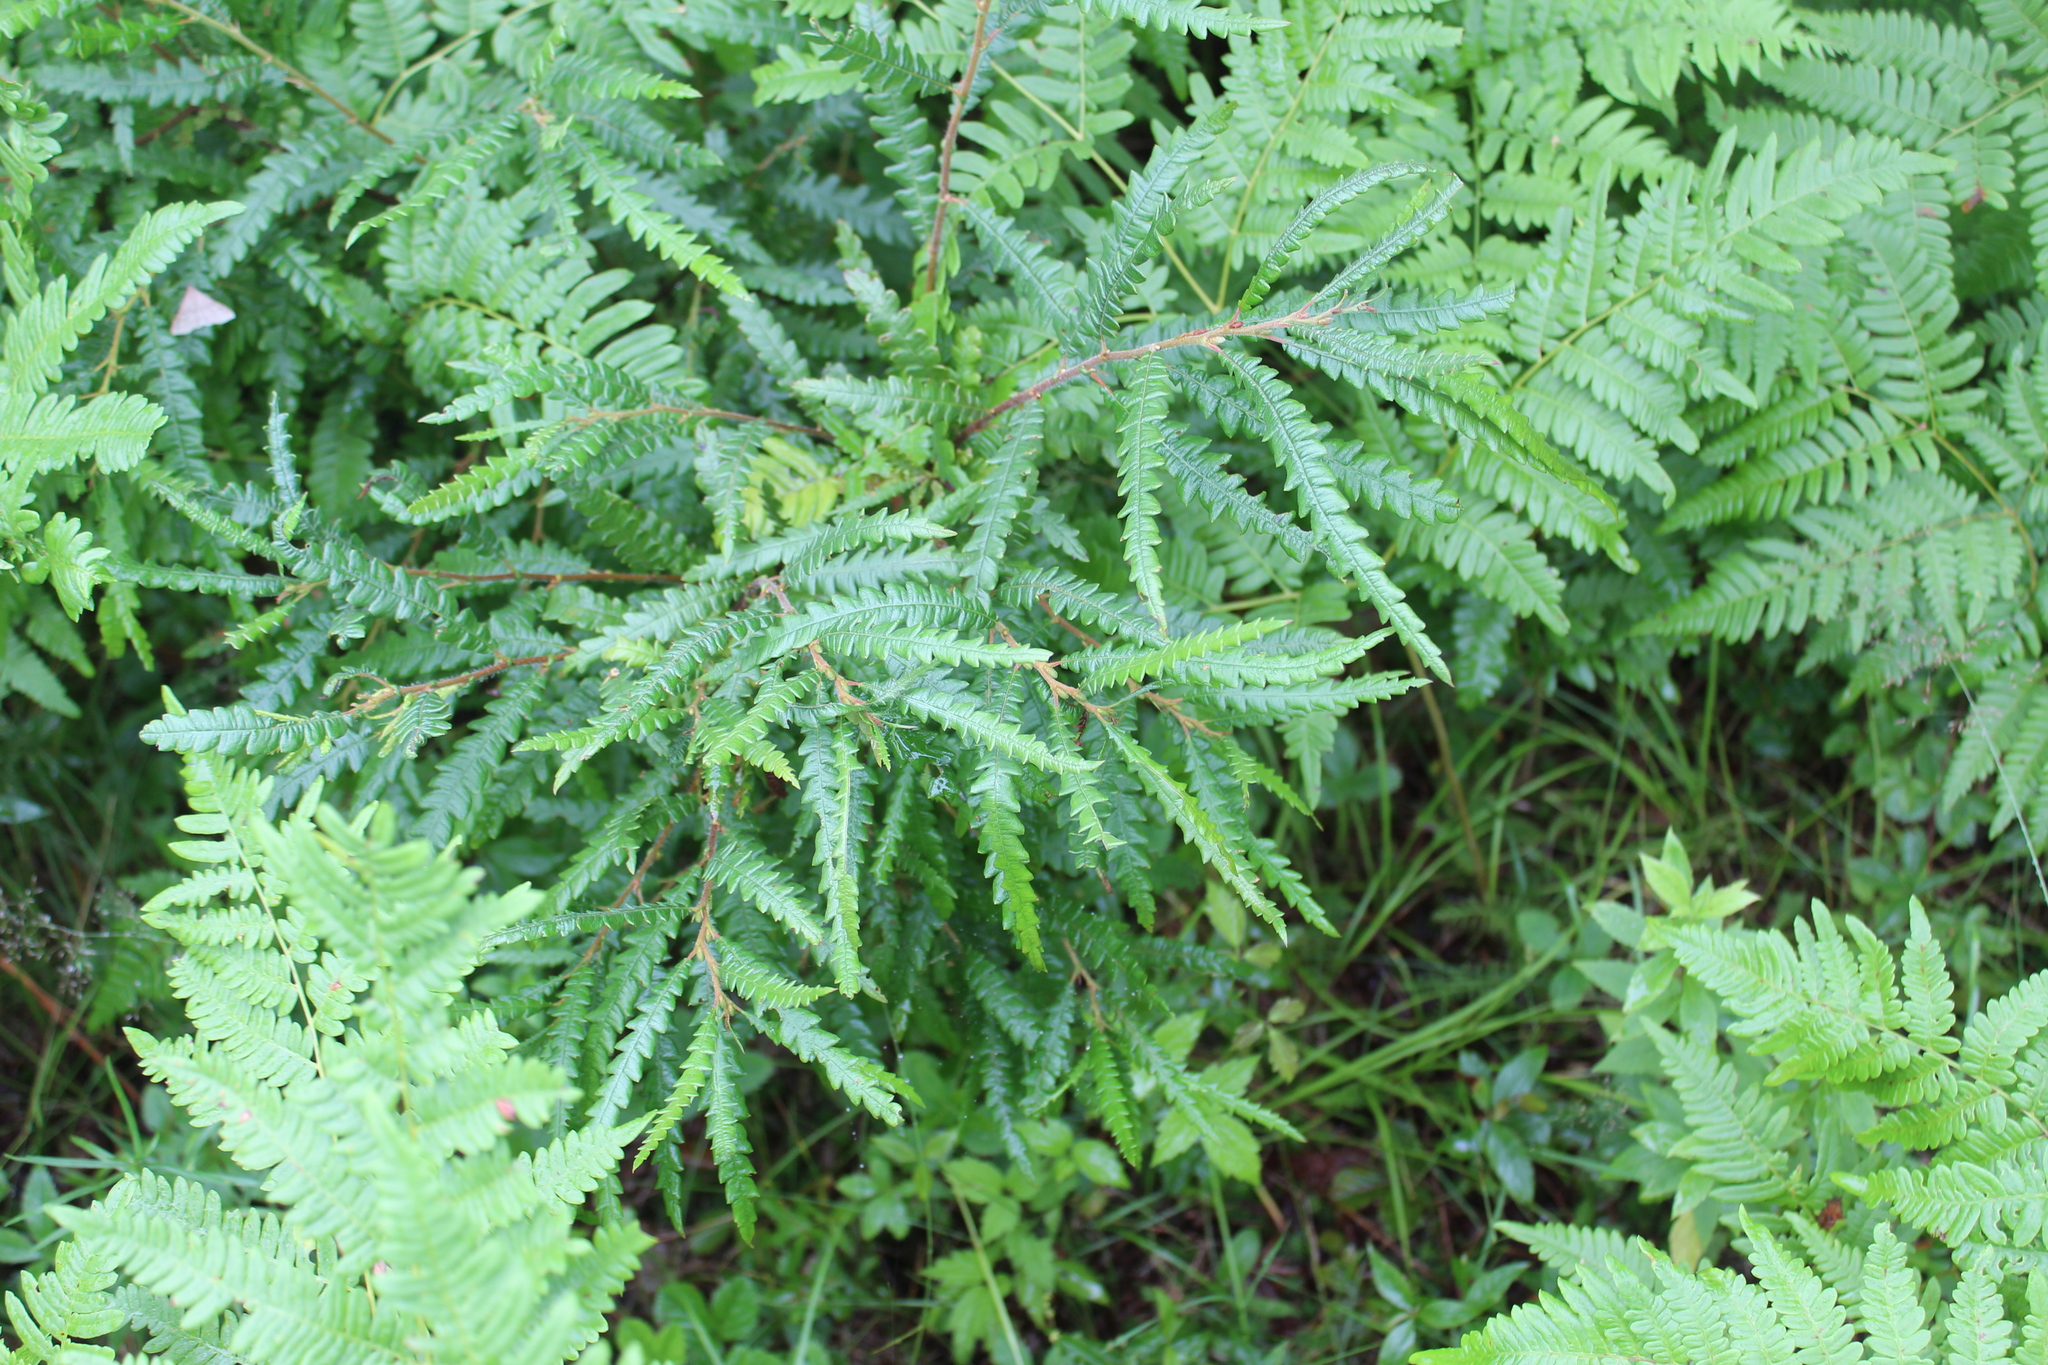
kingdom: Plantae
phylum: Tracheophyta
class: Magnoliopsida
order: Fagales
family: Myricaceae
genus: Comptonia
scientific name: Comptonia peregrina
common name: Sweet-fern
